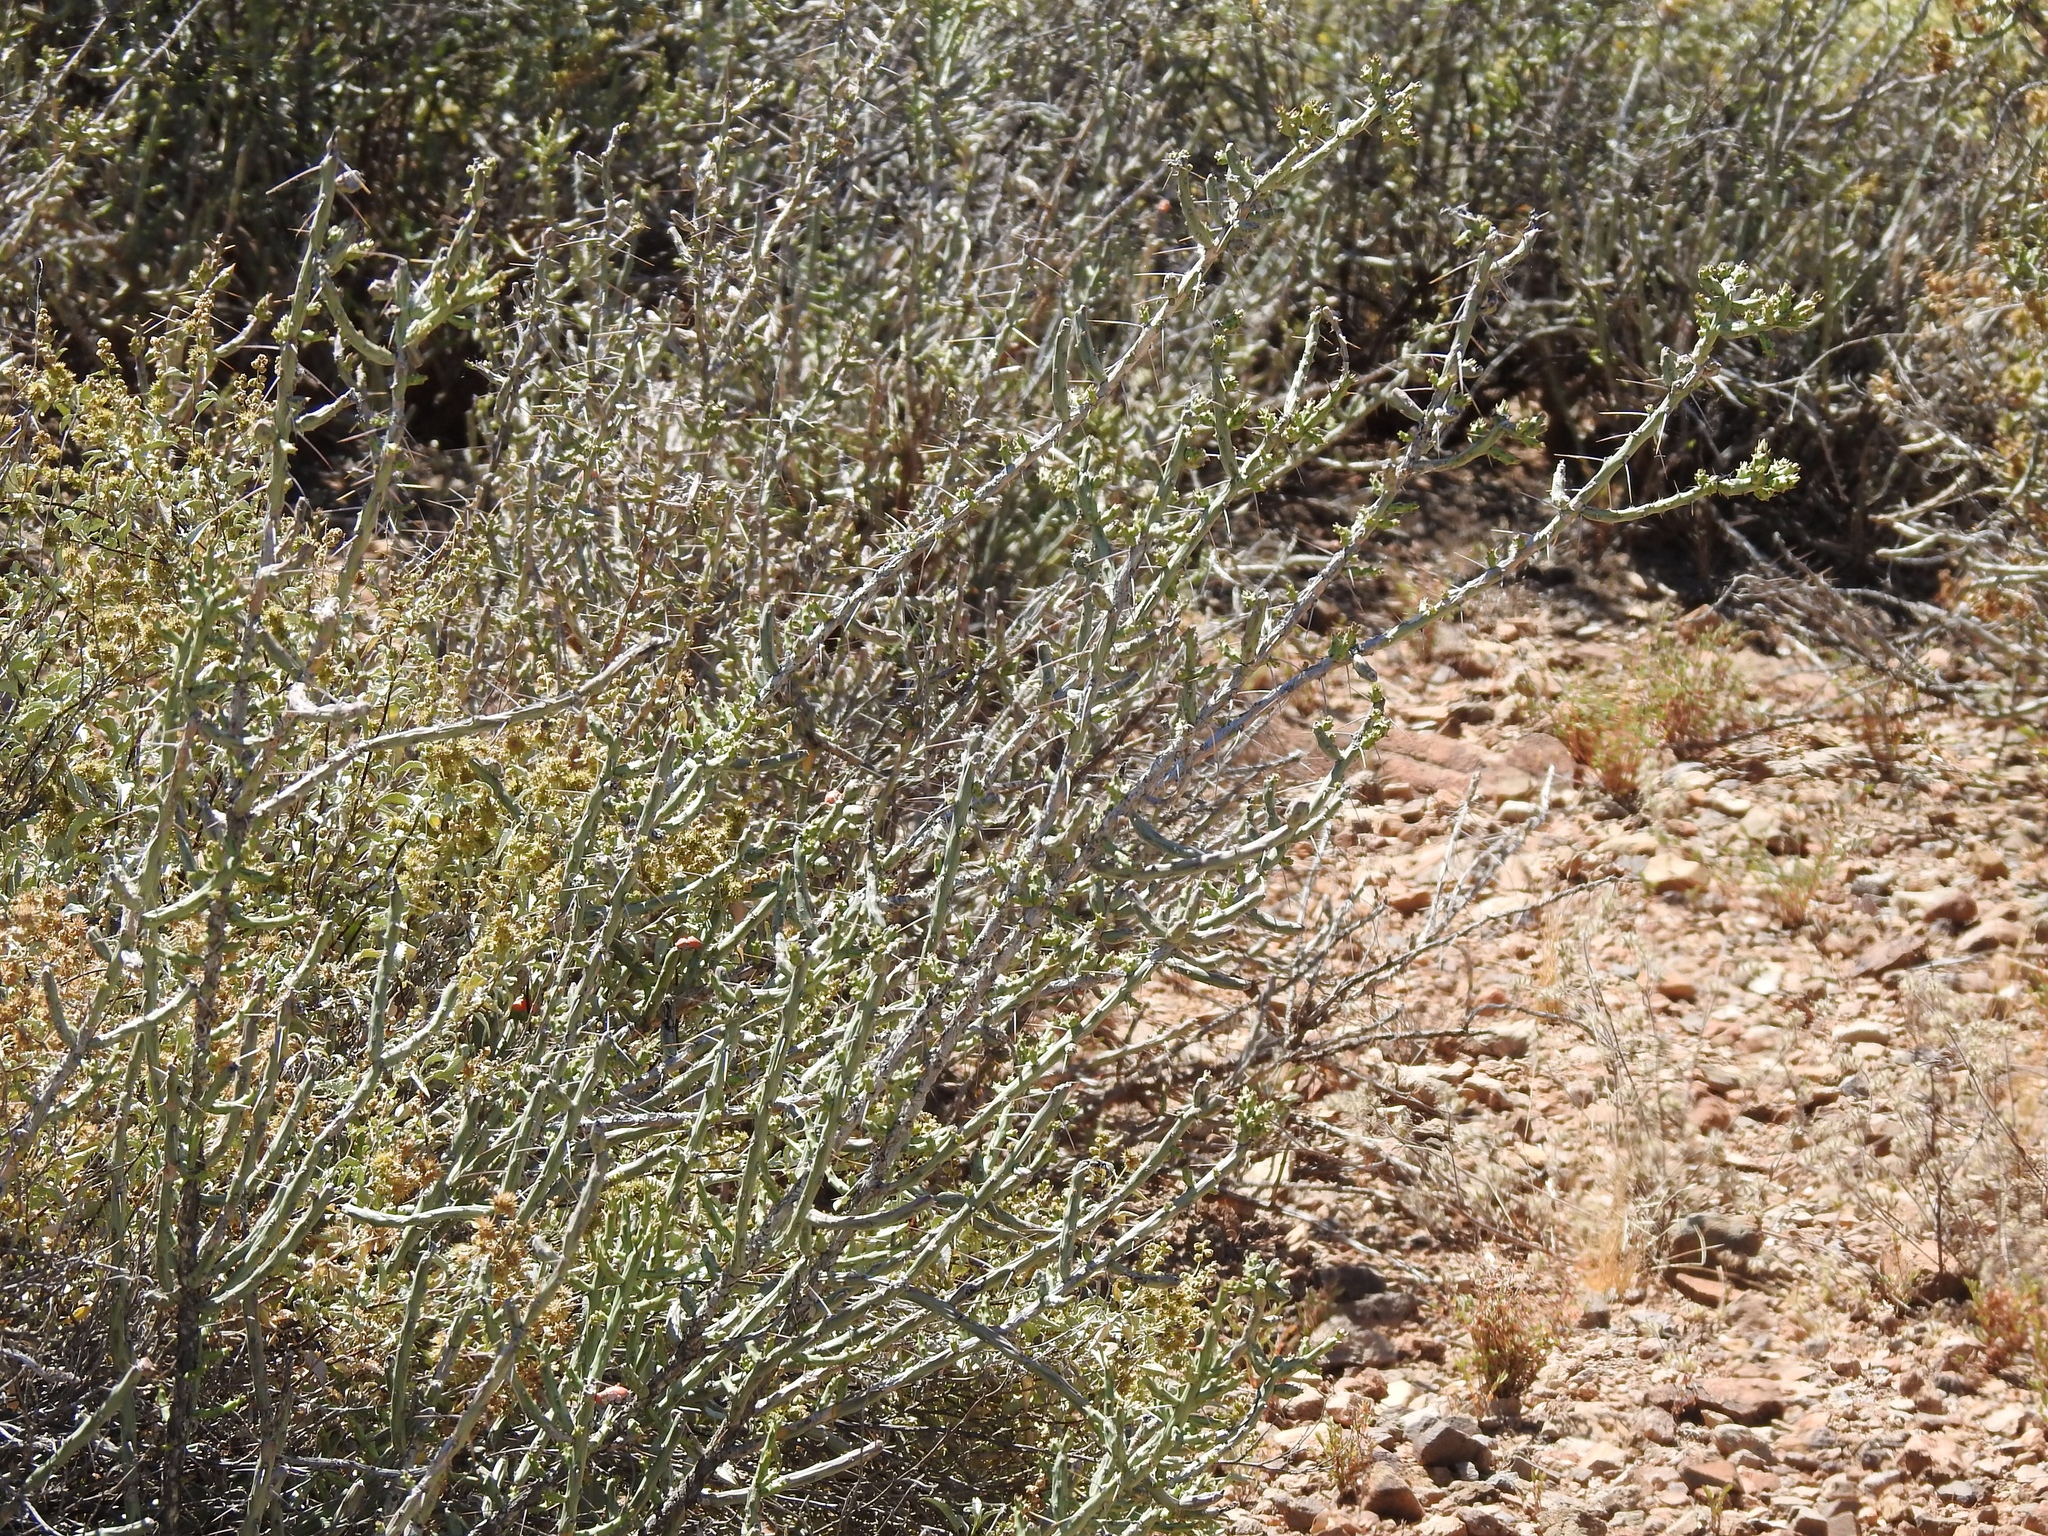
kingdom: Plantae
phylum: Tracheophyta
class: Magnoliopsida
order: Caryophyllales
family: Cactaceae
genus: Cylindropuntia
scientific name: Cylindropuntia leptocaulis
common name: Christmas cactus
